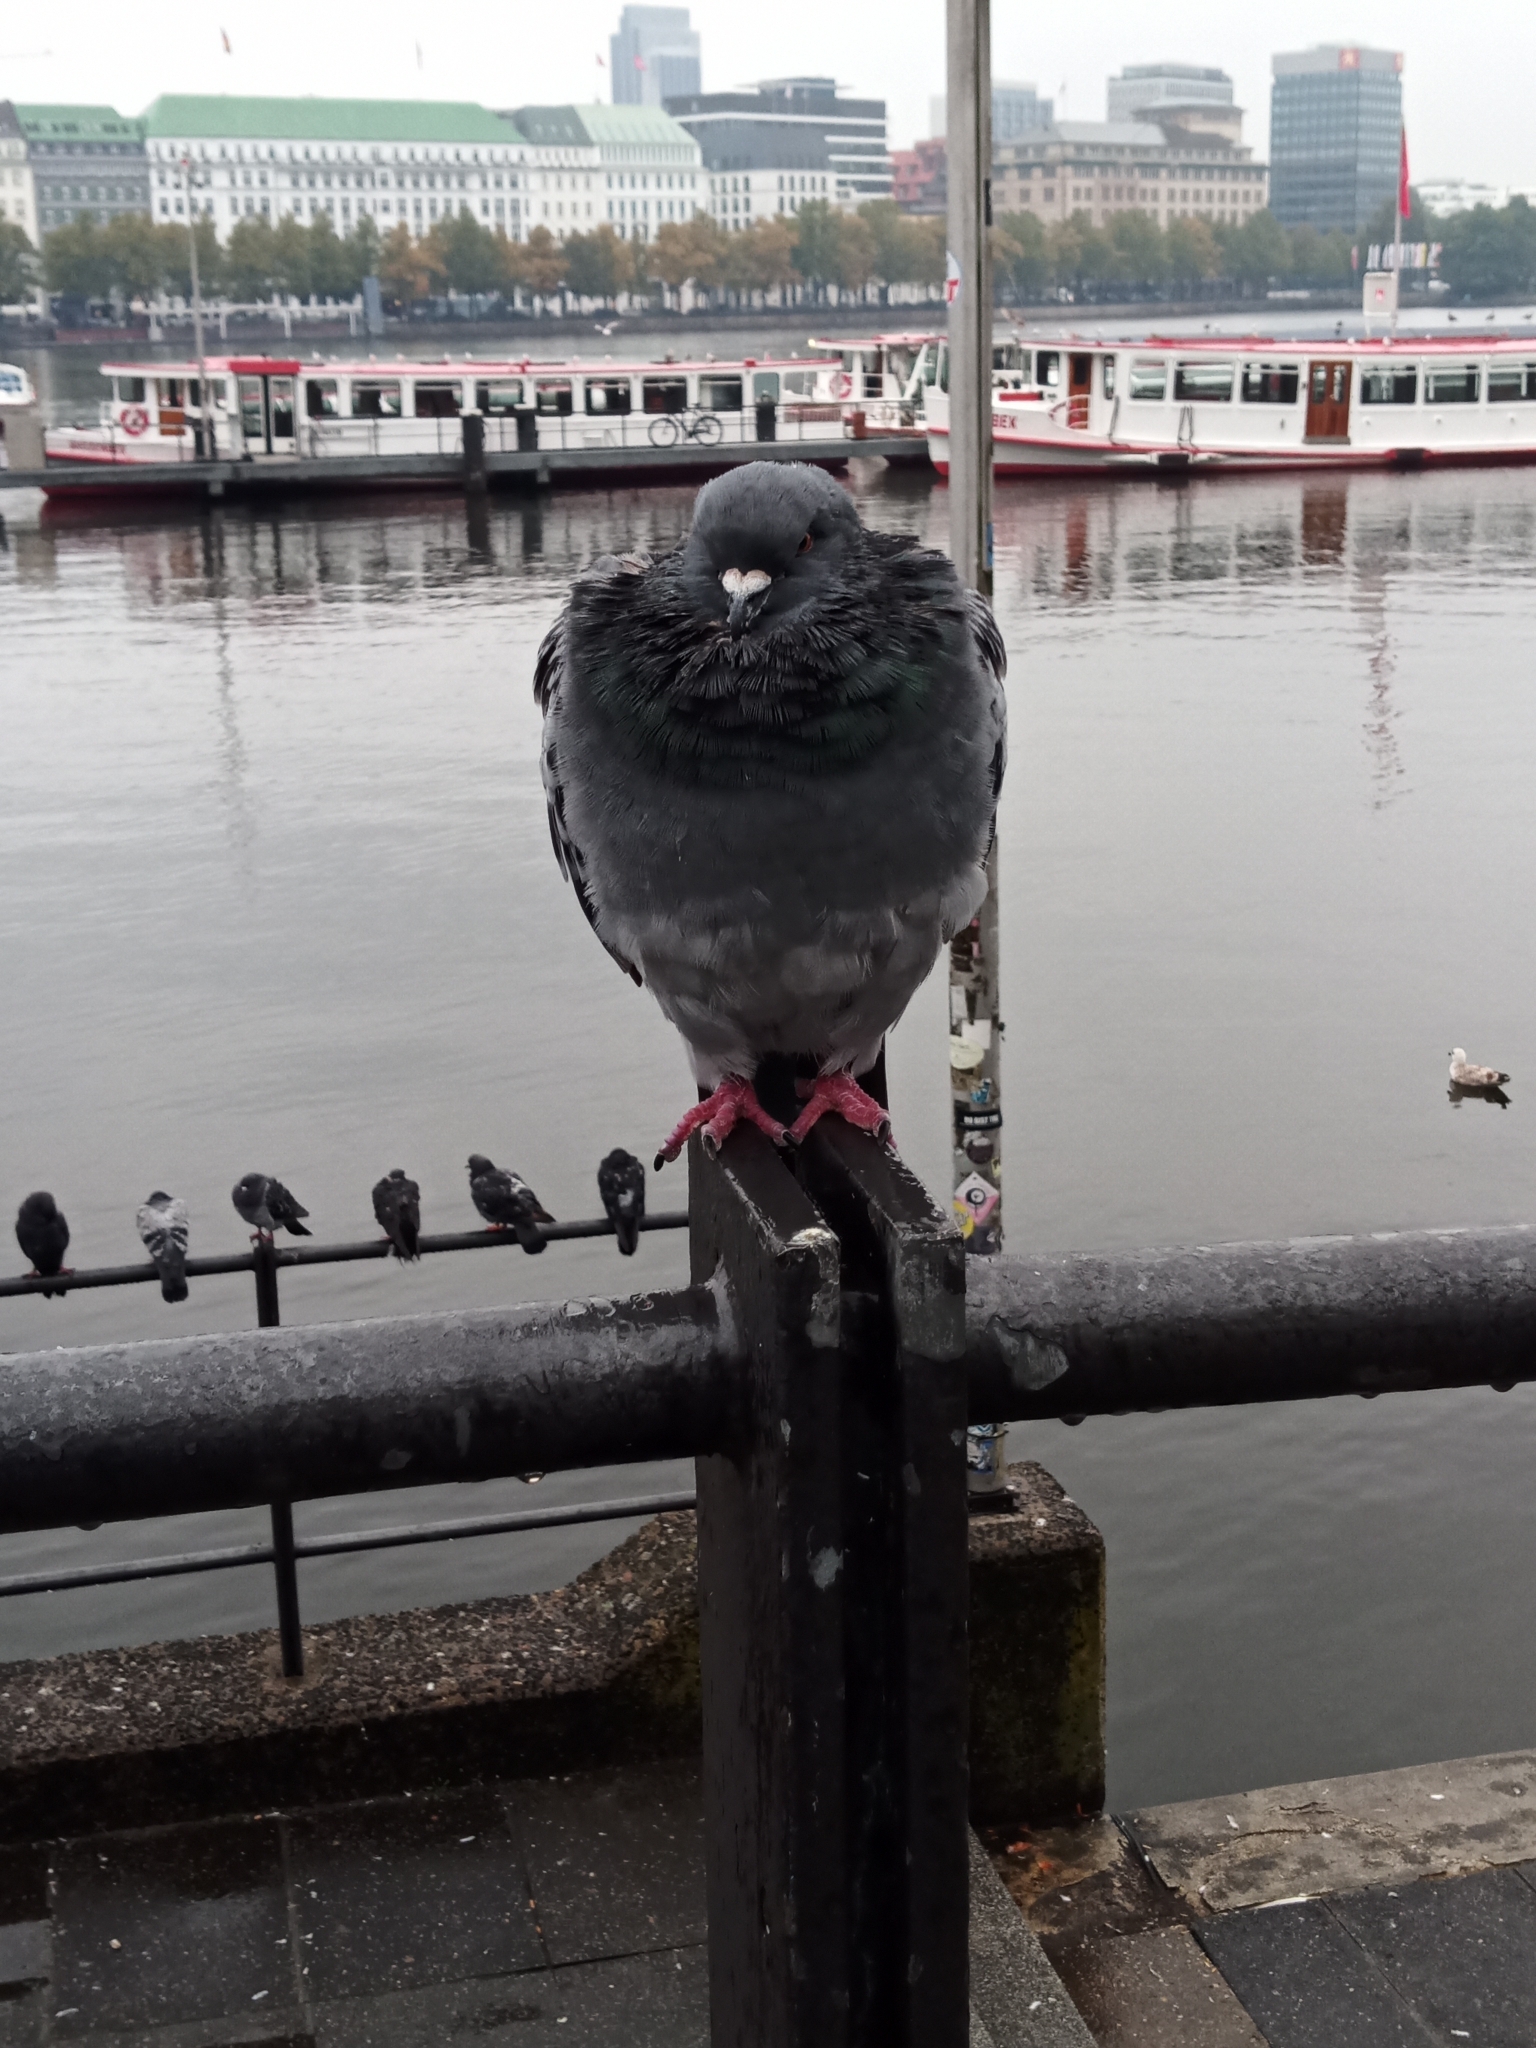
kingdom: Animalia
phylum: Chordata
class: Aves
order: Columbiformes
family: Columbidae
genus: Columba
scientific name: Columba livia
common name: Rock pigeon
